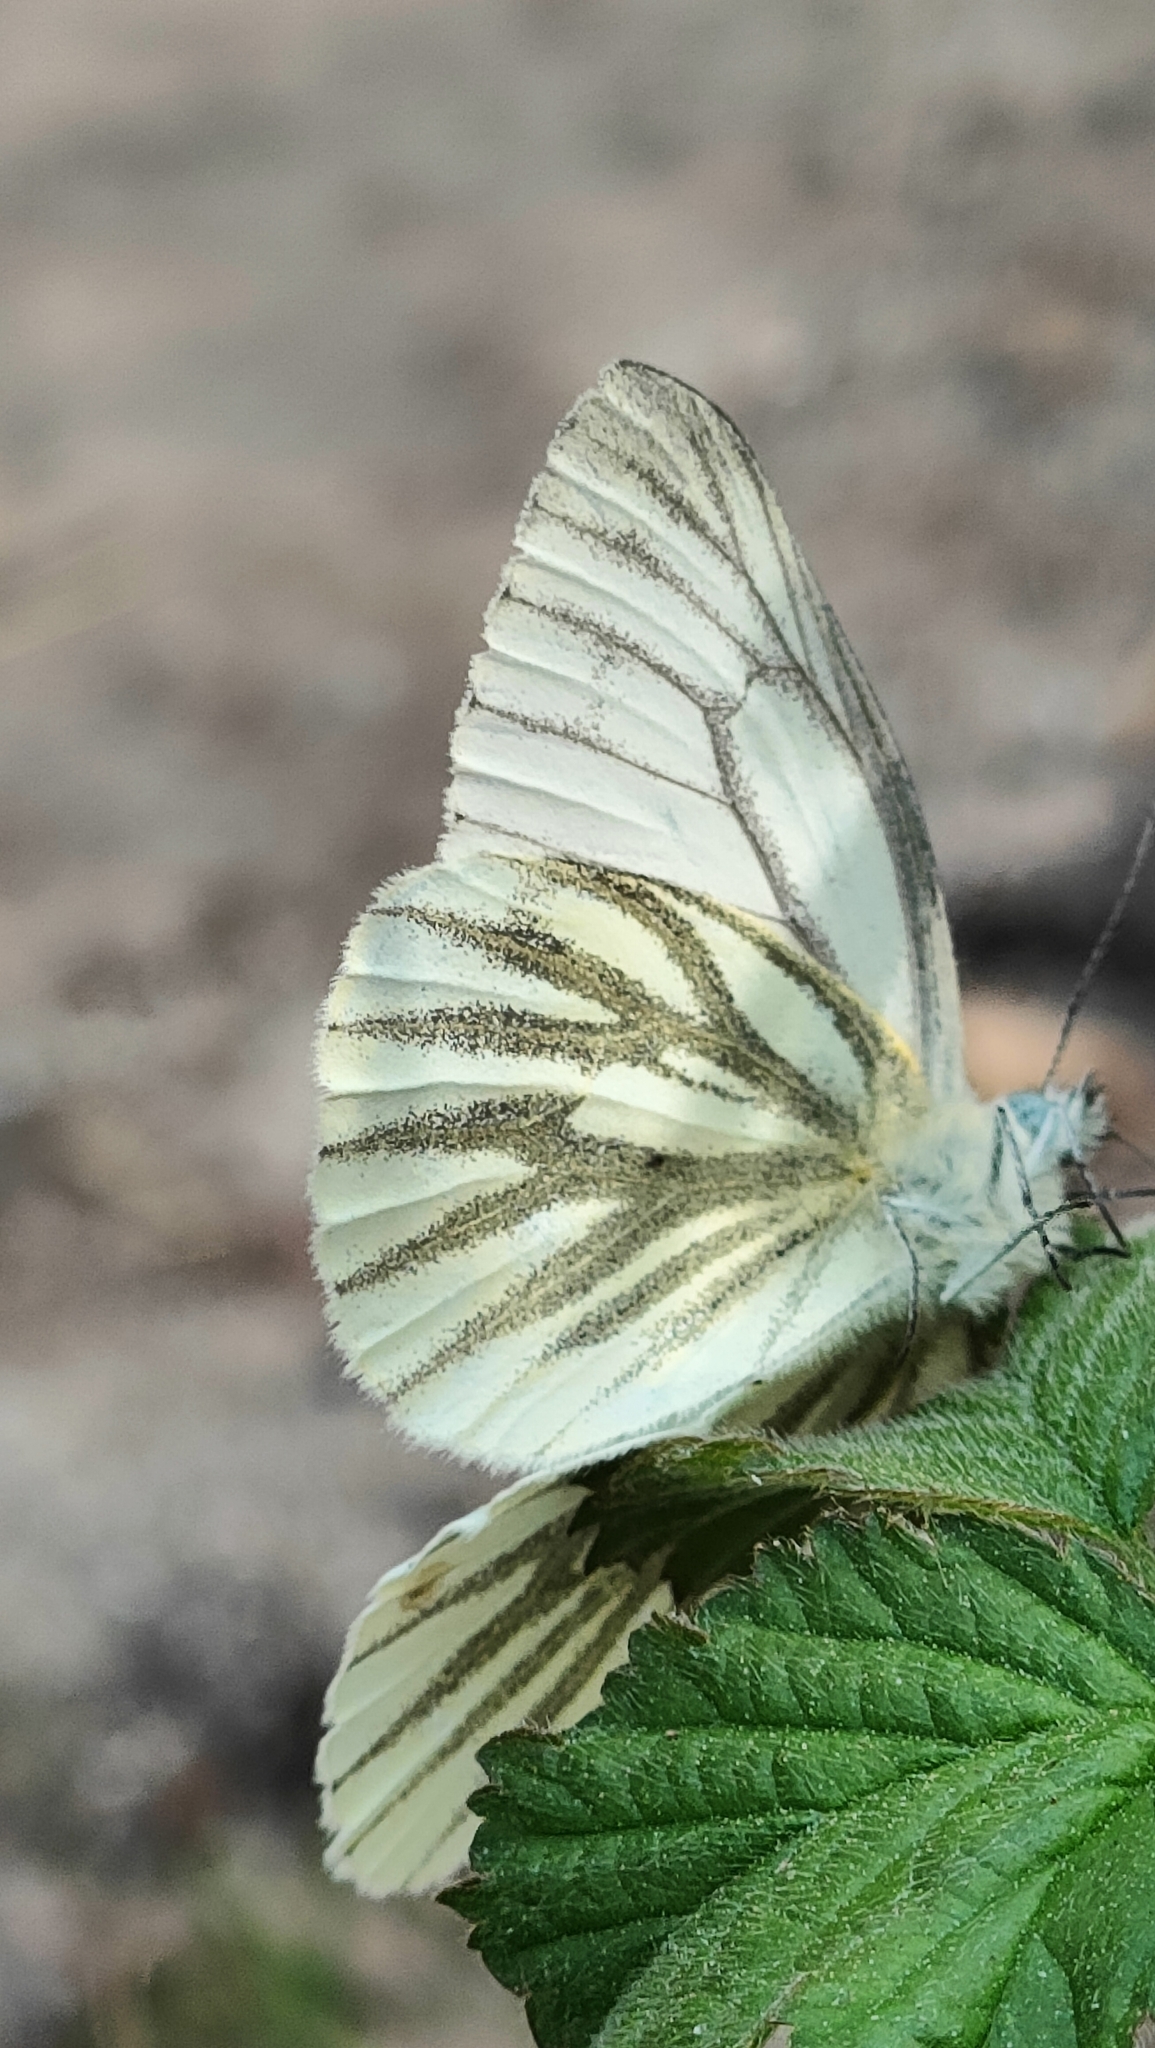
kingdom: Animalia
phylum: Arthropoda
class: Insecta
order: Lepidoptera
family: Pieridae
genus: Pieris
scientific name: Pieris napi
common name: Green-veined white
